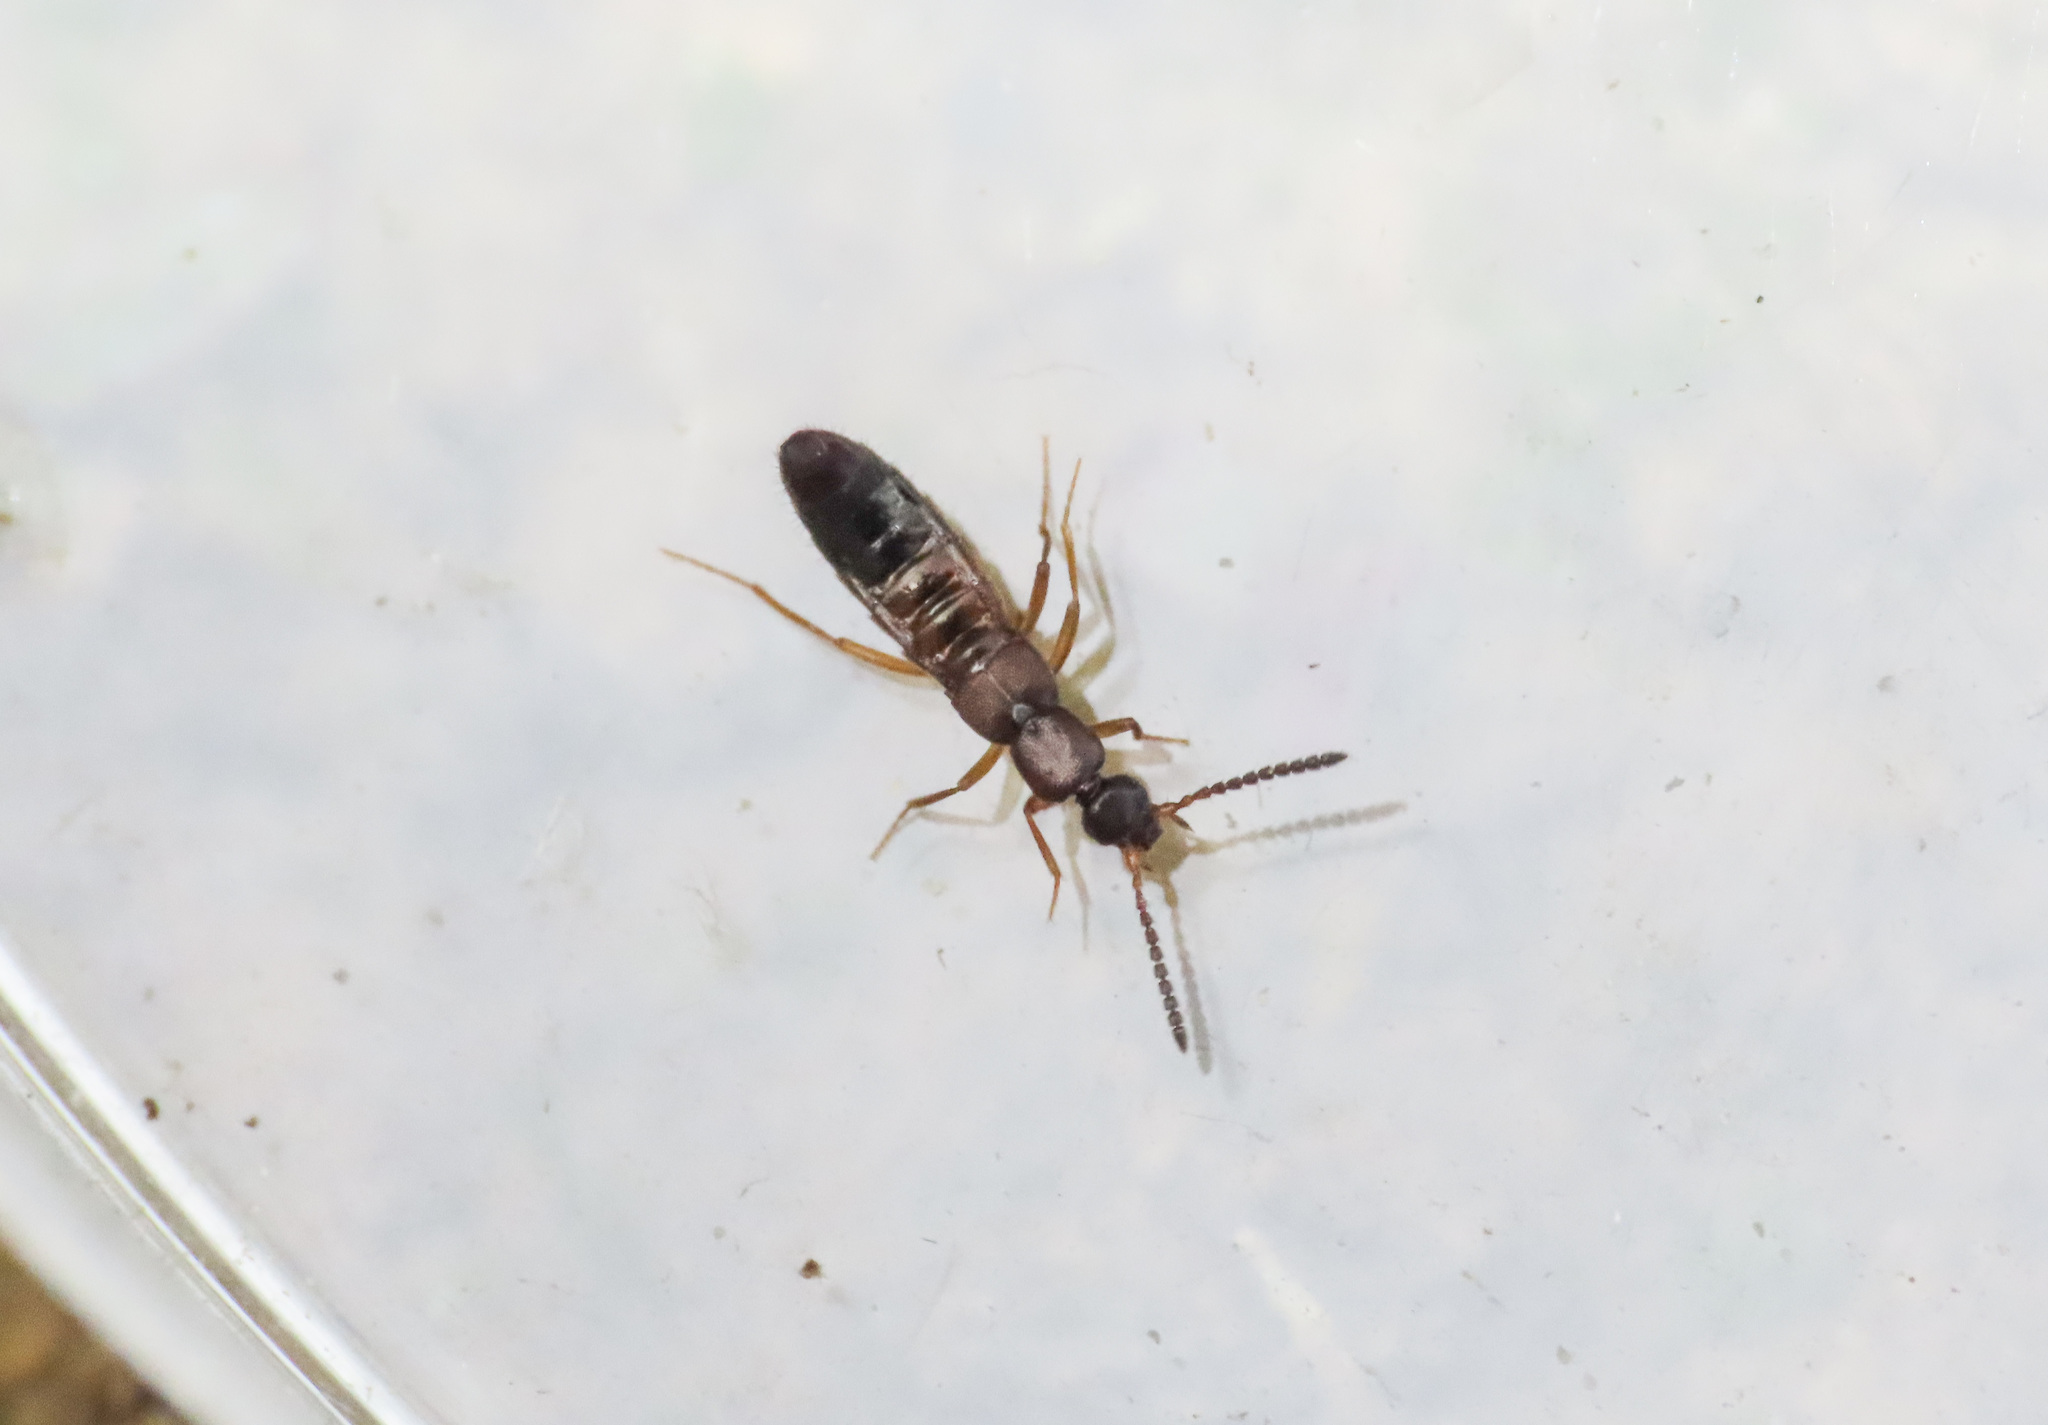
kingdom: Animalia
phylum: Arthropoda
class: Insecta
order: Coleoptera
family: Staphylinidae
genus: Drusilla
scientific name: Drusilla canaliculata
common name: Rove beetle
